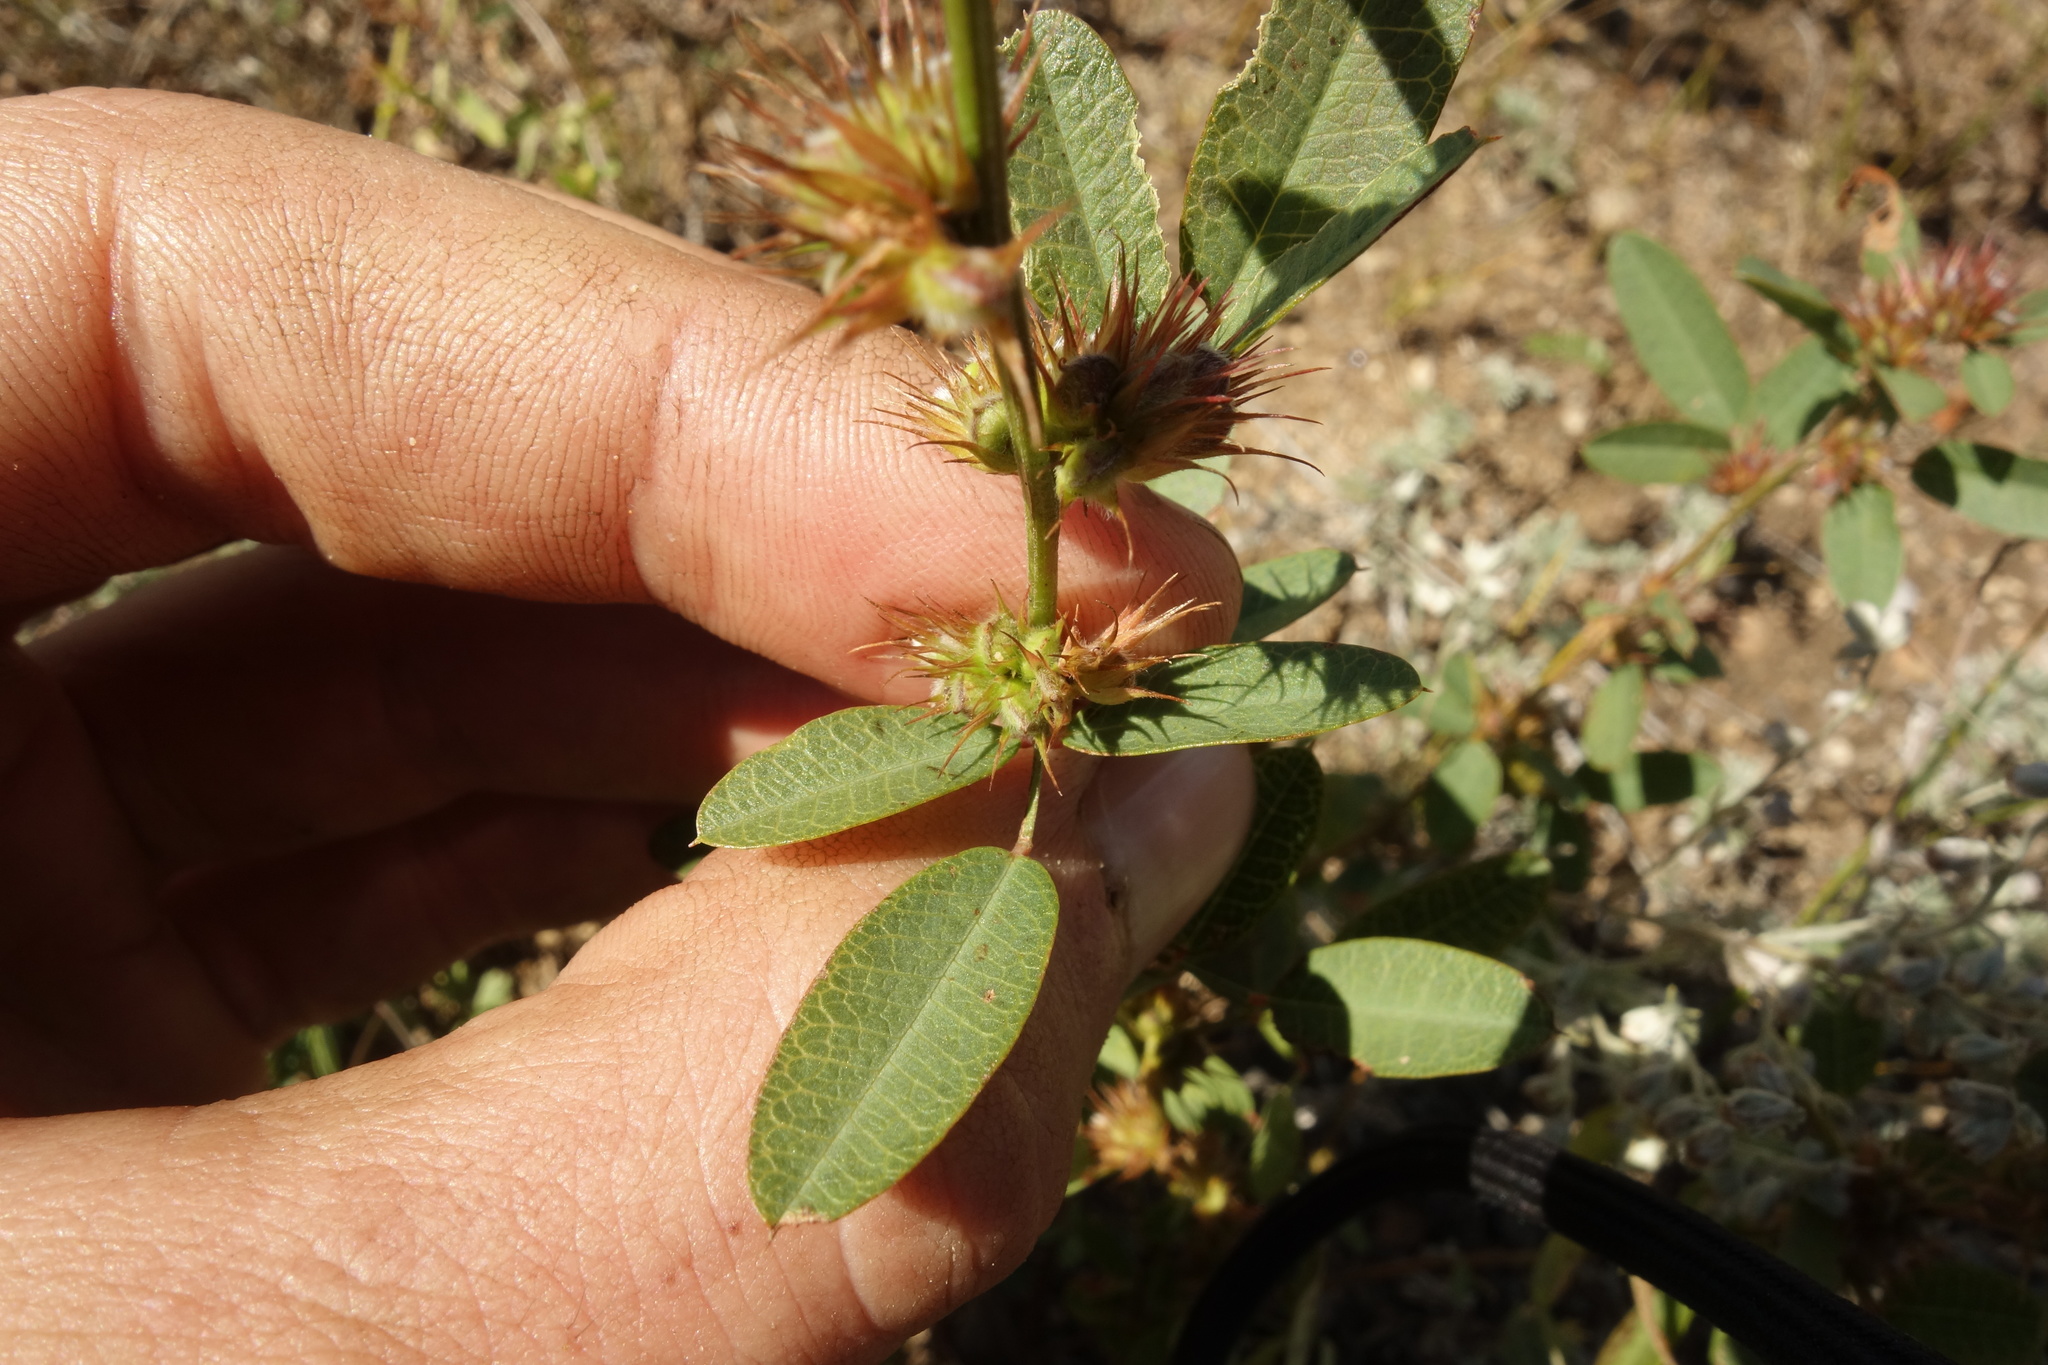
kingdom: Plantae
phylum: Tracheophyta
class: Magnoliopsida
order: Fabales
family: Fabaceae
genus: Lespedeza
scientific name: Lespedeza daurica
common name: Dahurian lespedeza
